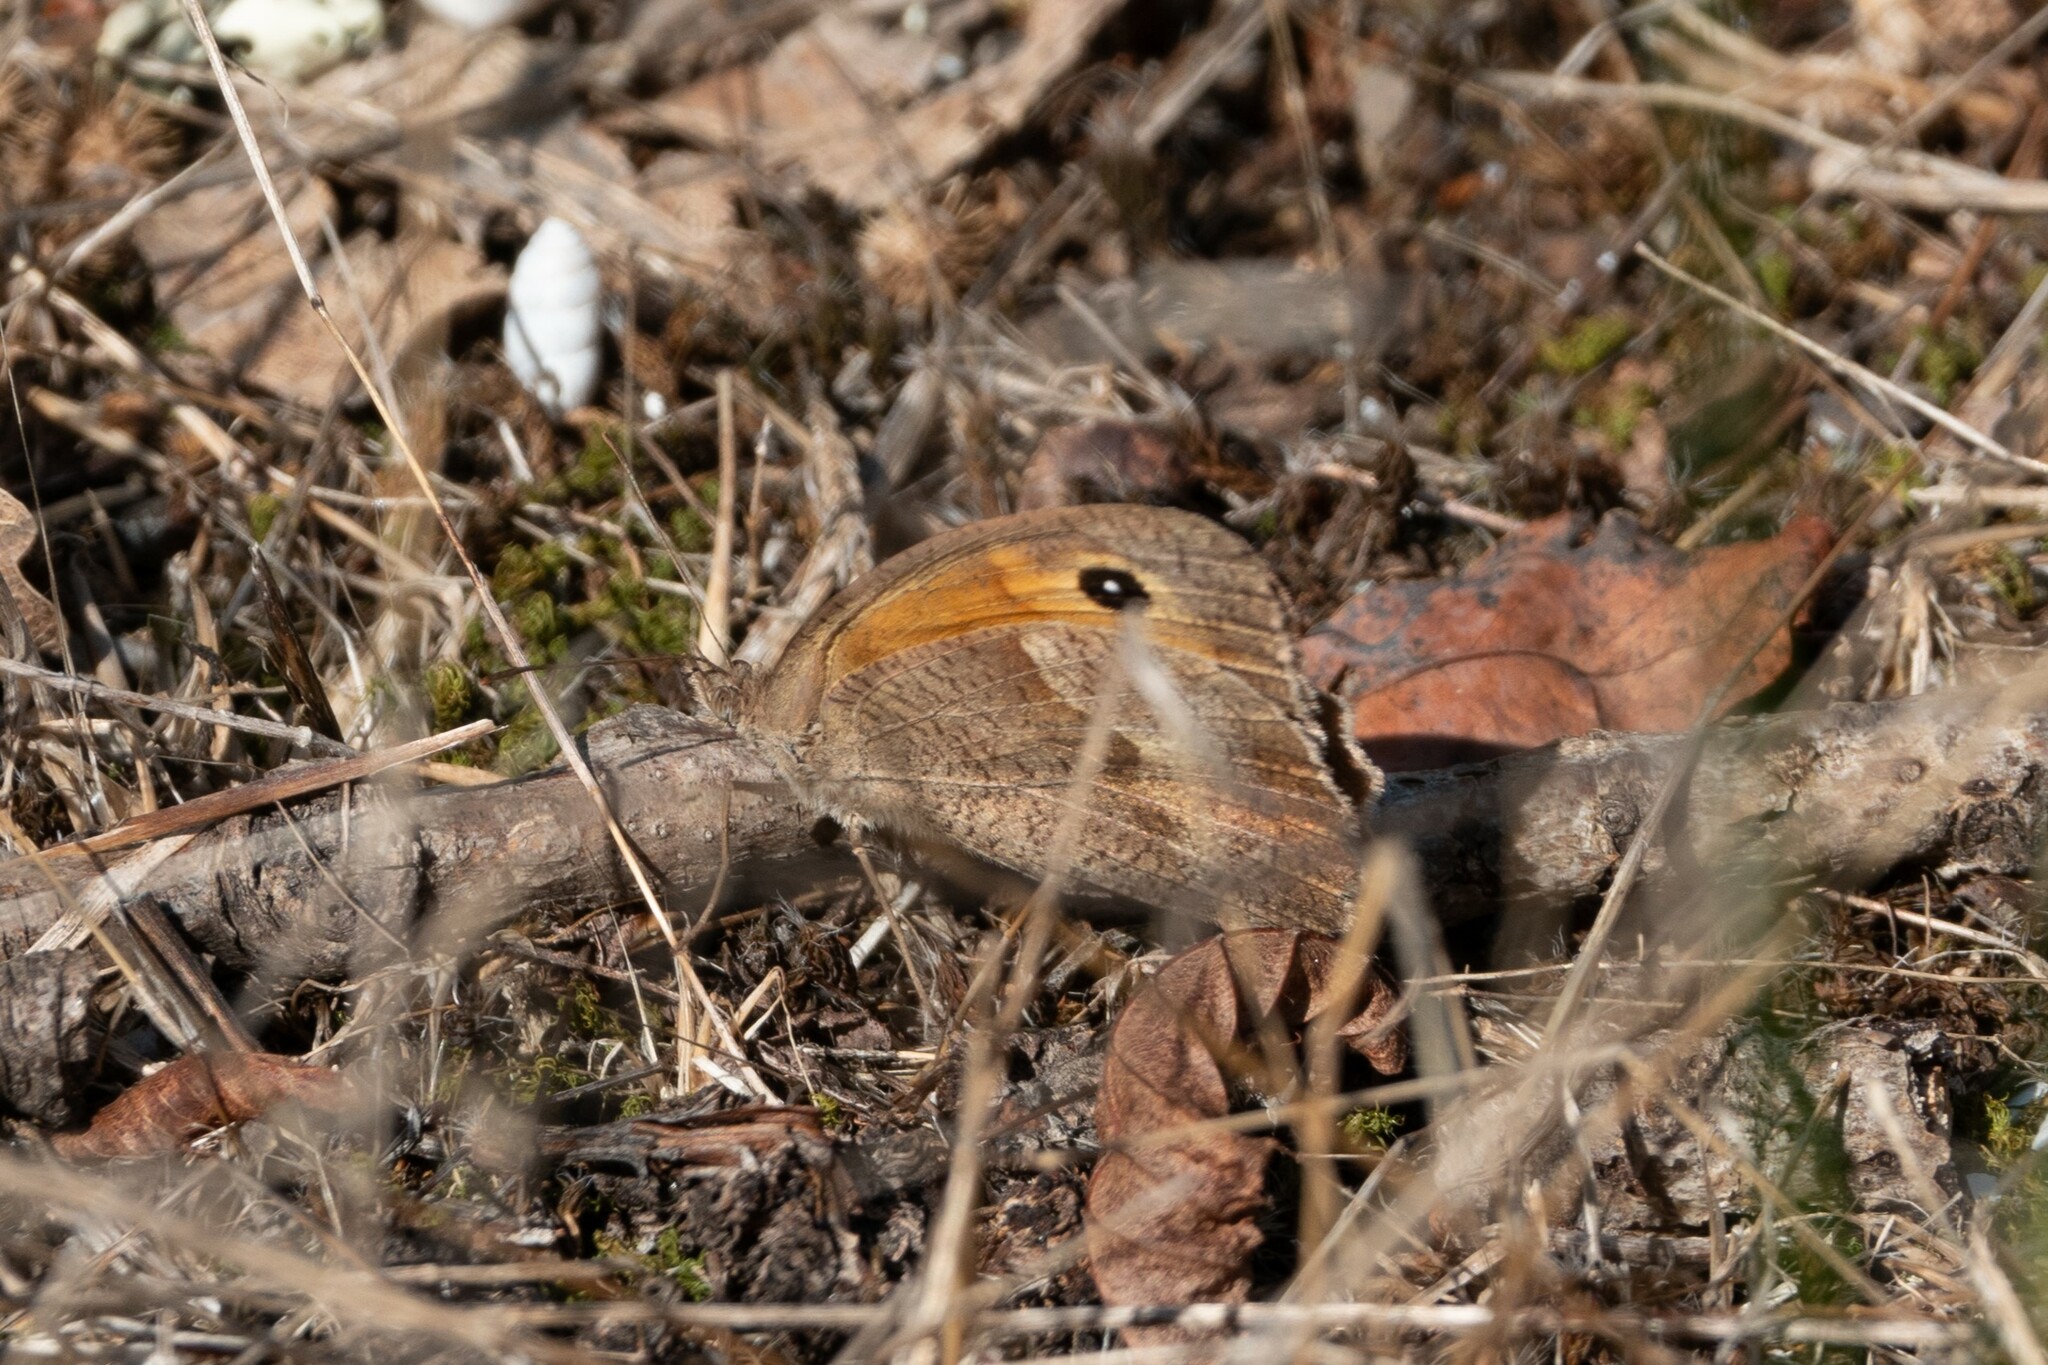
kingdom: Animalia
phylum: Arthropoda
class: Insecta
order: Lepidoptera
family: Nymphalidae
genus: Maniola
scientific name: Maniola jurtina
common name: Meadow brown
